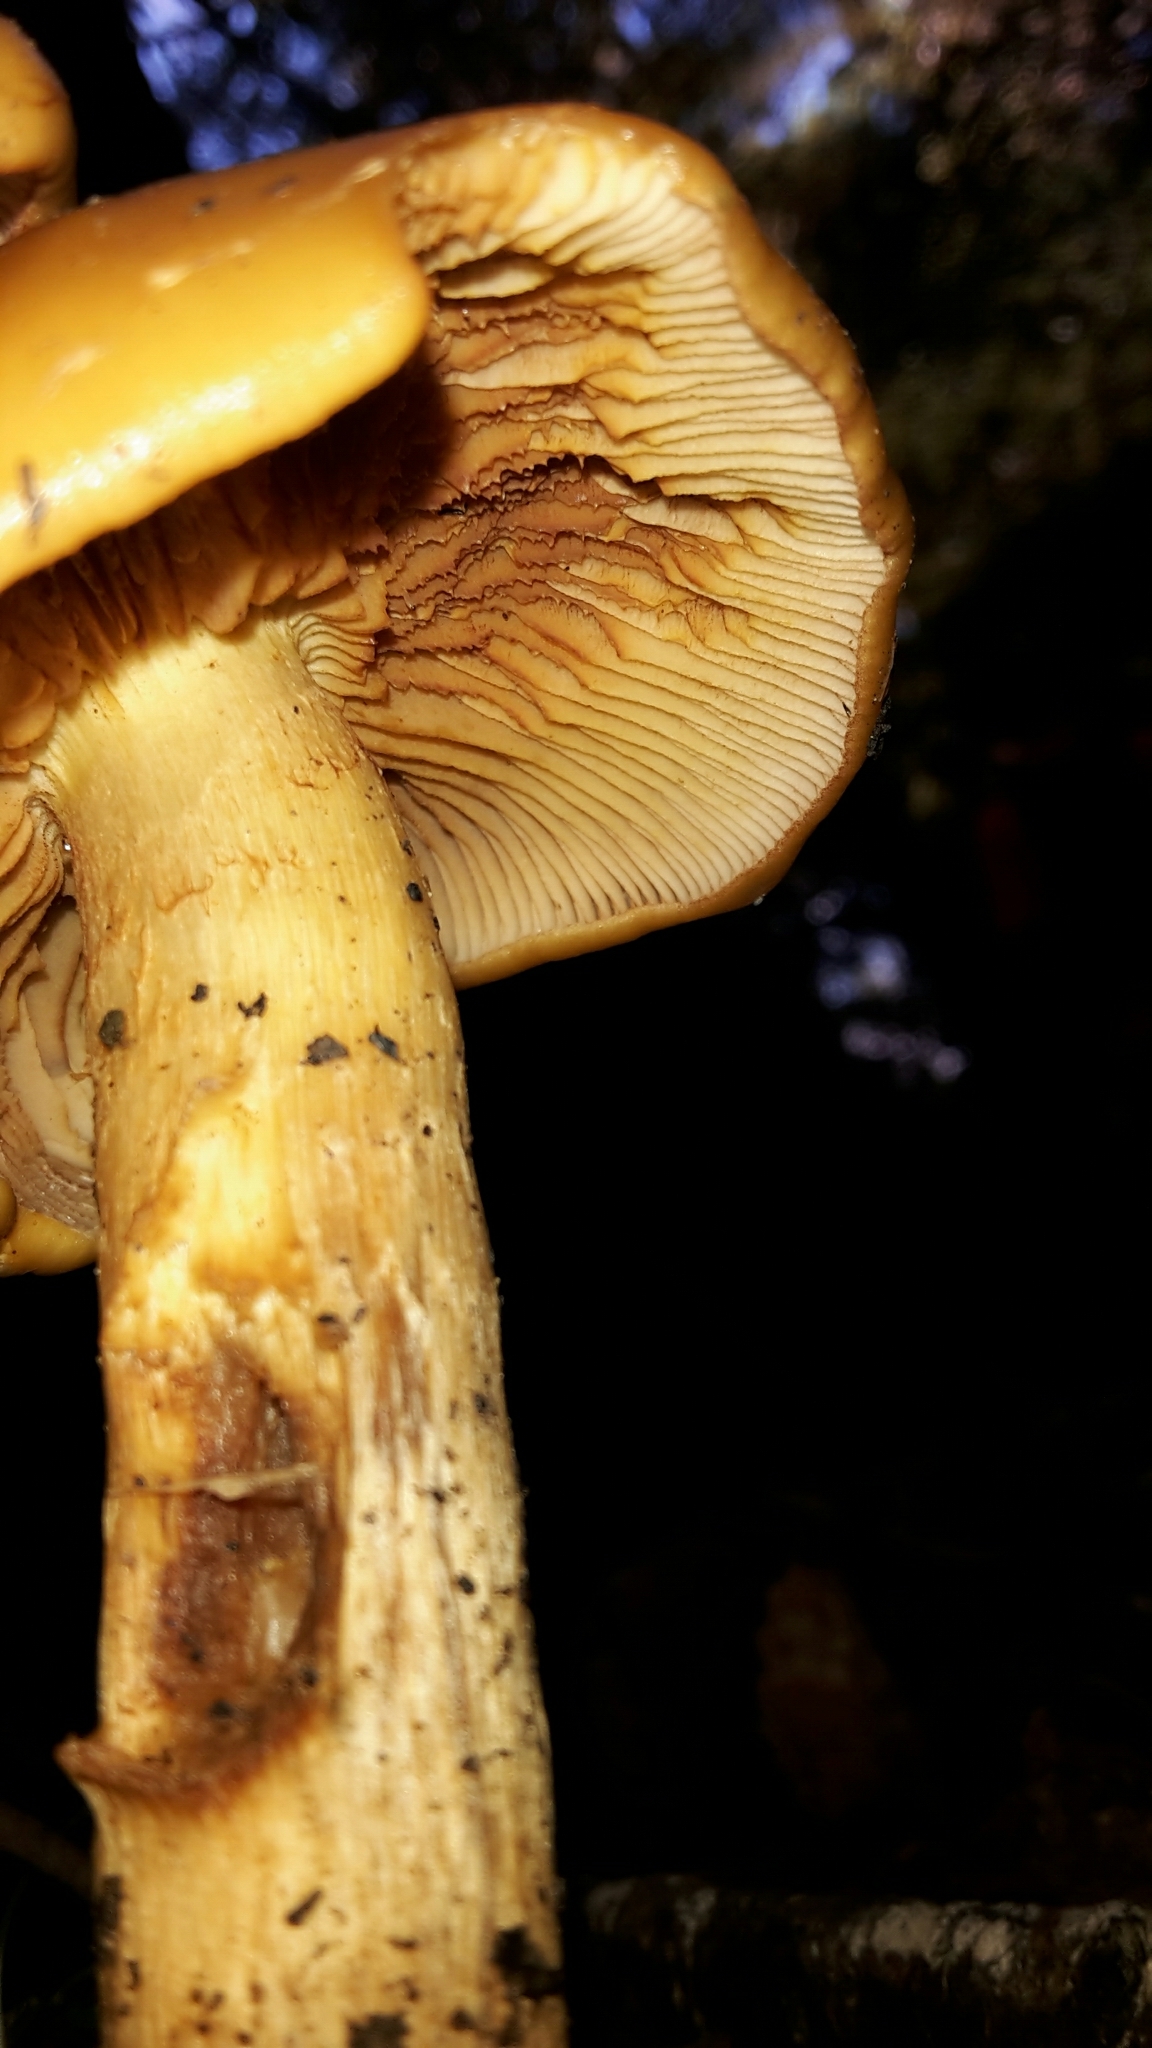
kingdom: Fungi
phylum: Basidiomycota
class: Agaricomycetes
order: Agaricales
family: Hymenogastraceae
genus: Gymnopilus
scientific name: Gymnopilus junonius
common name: Spectacular rustgill
